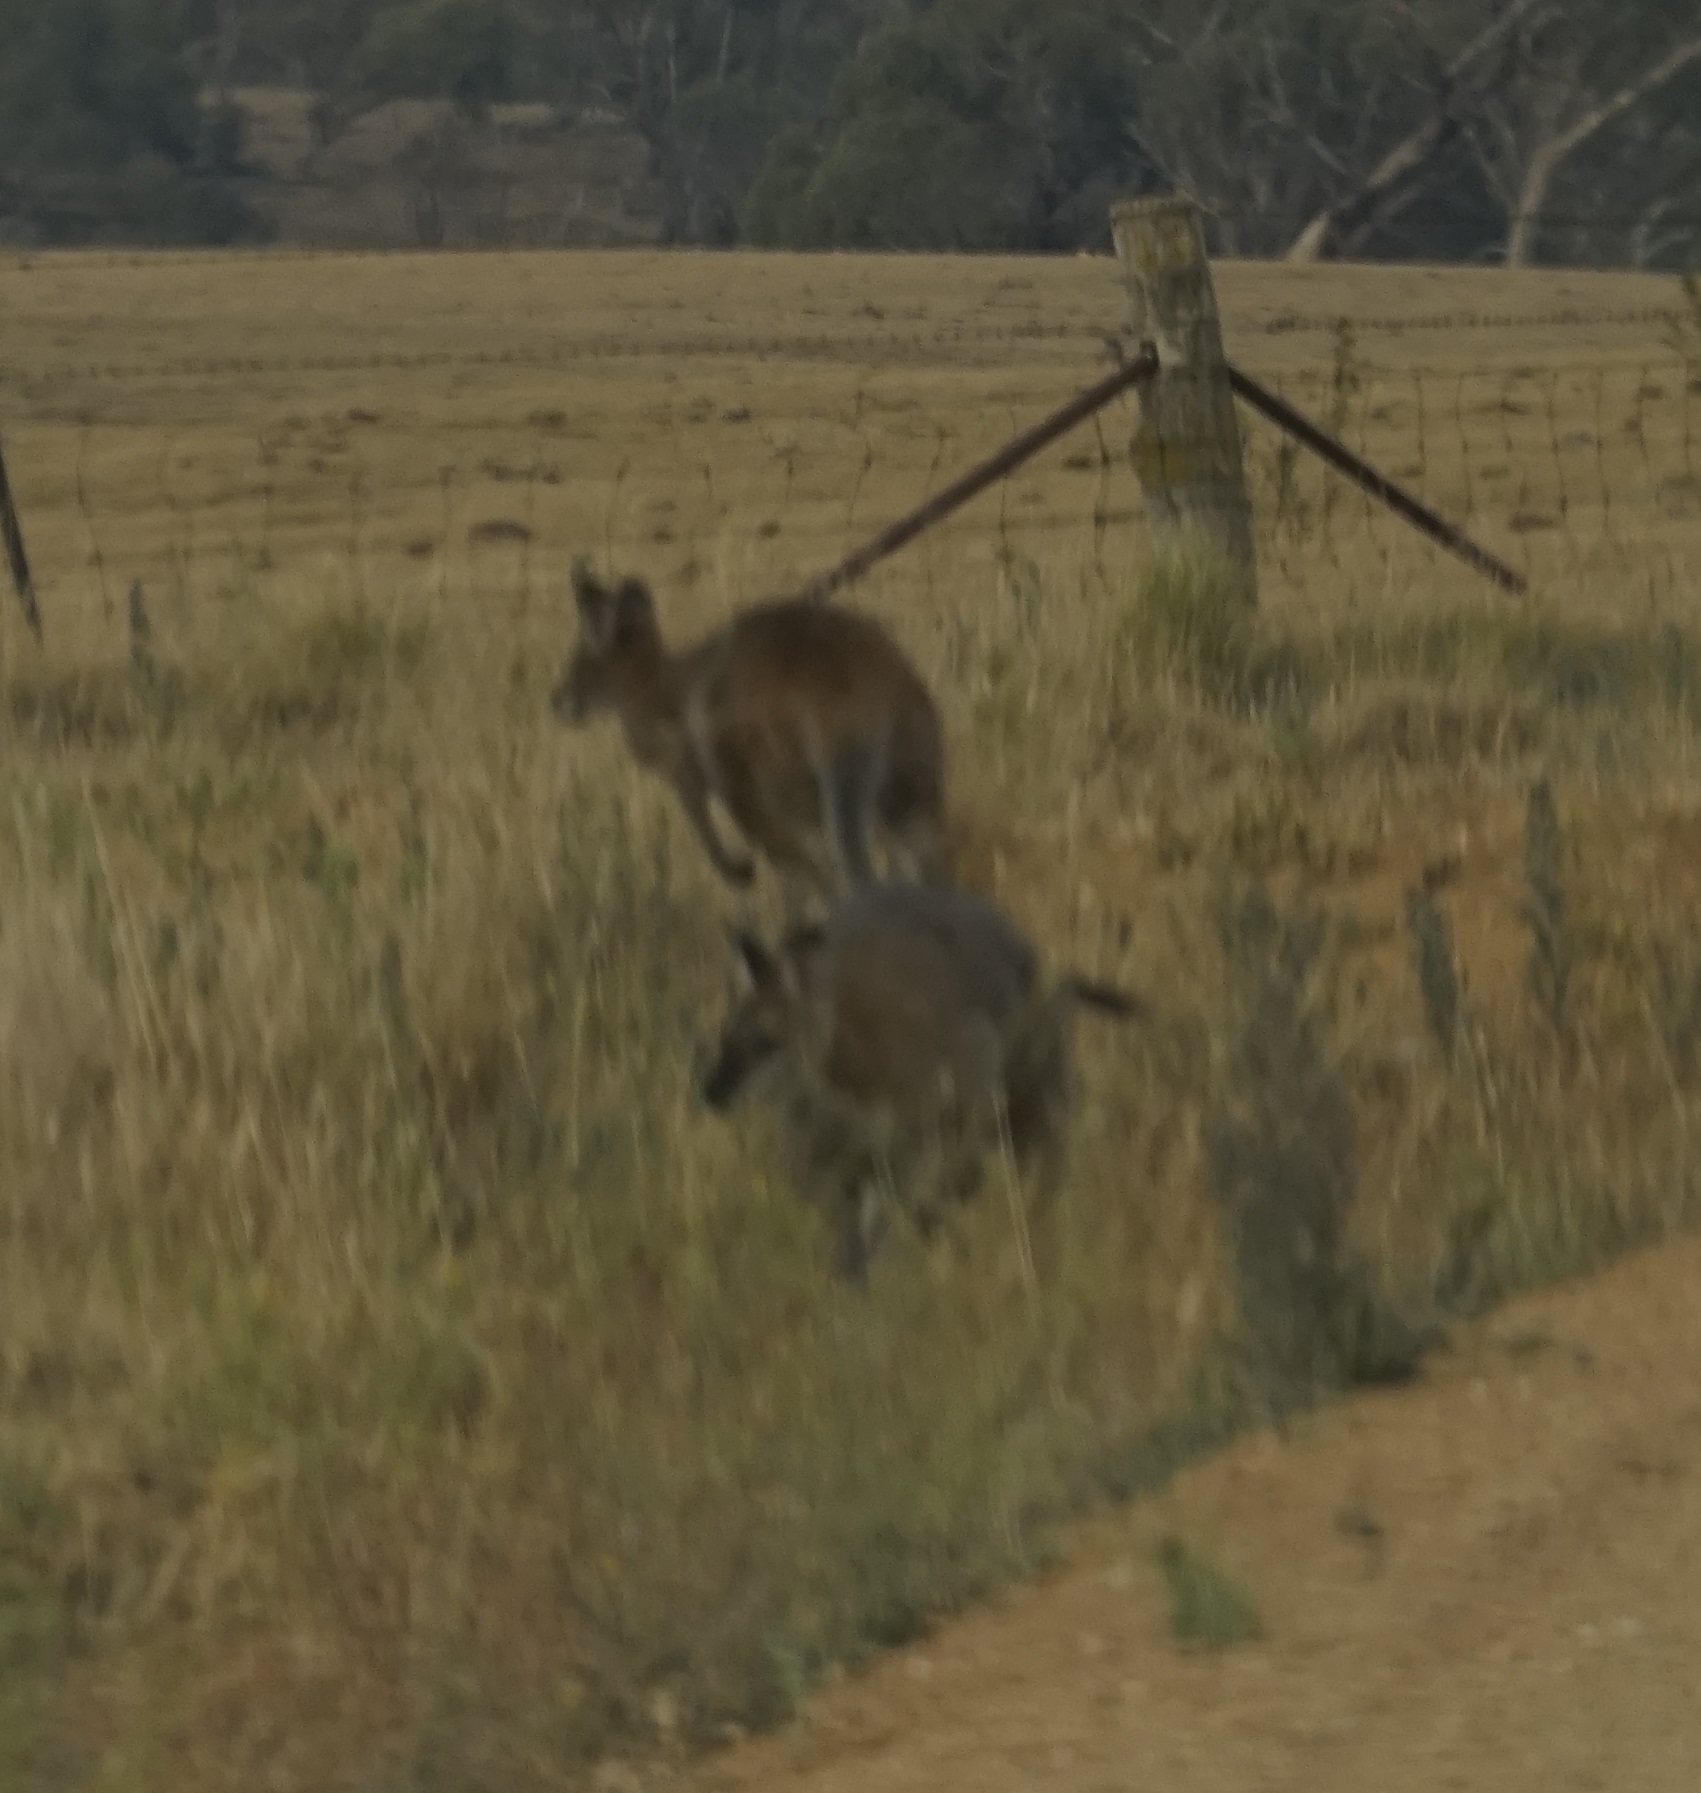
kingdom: Animalia
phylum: Chordata
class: Mammalia
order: Diprotodontia
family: Macropodidae
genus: Notamacropus
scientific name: Notamacropus rufogriseus
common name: Red-necked wallaby
